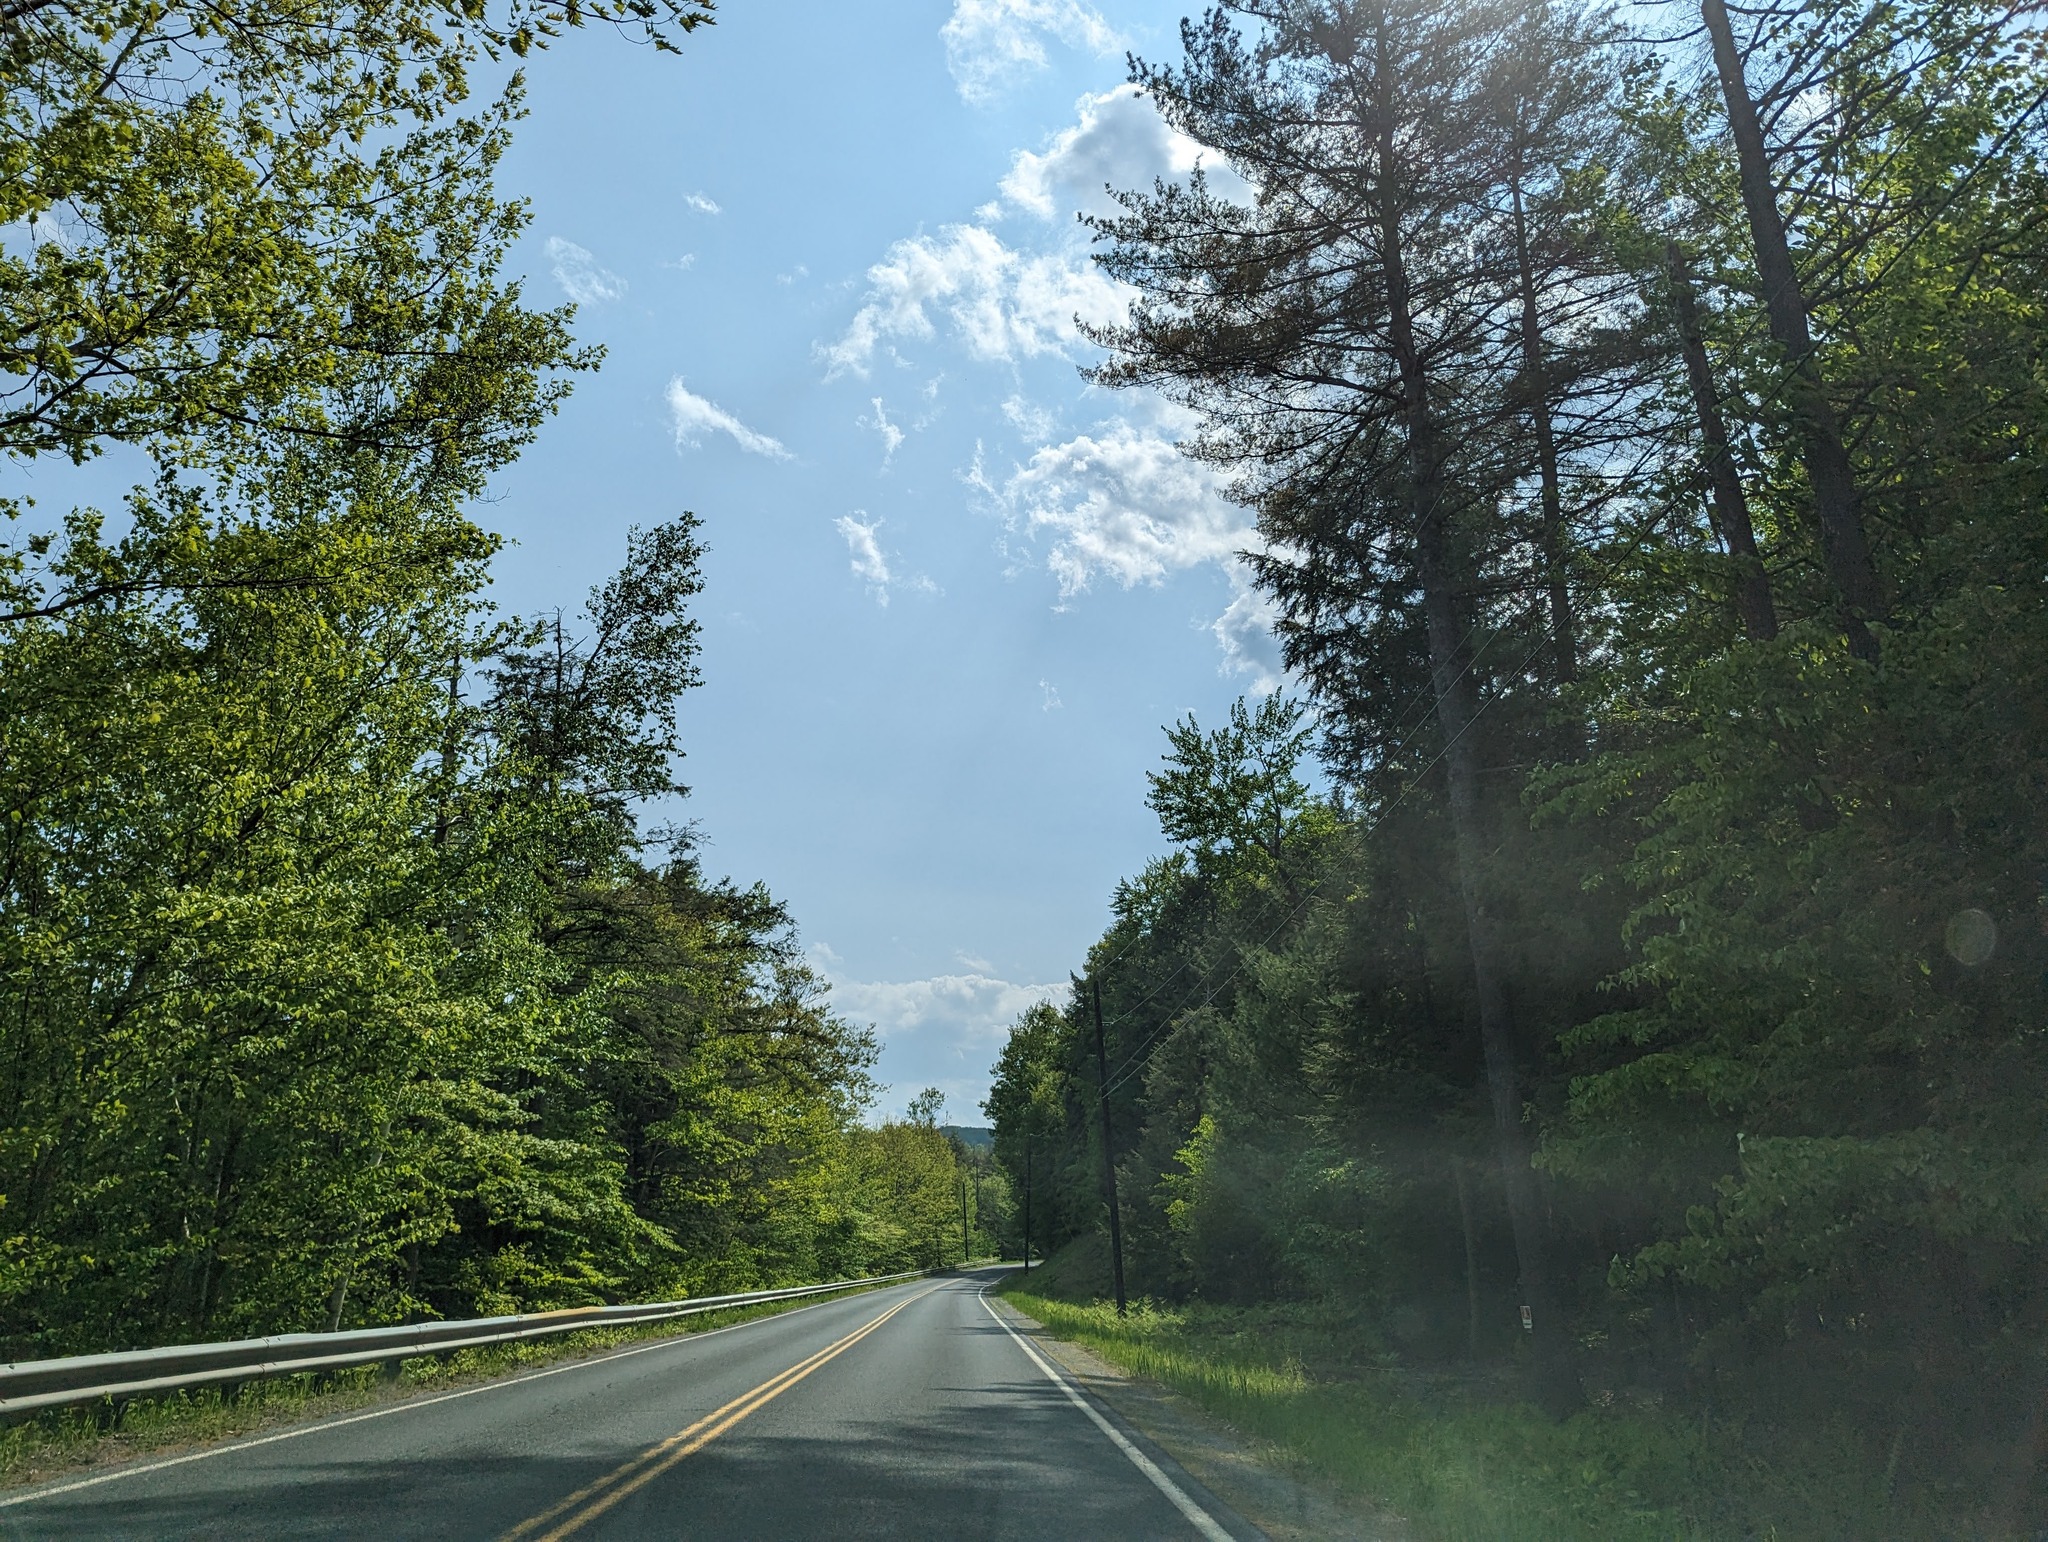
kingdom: Plantae
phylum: Tracheophyta
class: Pinopsida
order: Pinales
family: Pinaceae
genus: Pinus
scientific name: Pinus strobus
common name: Weymouth pine
